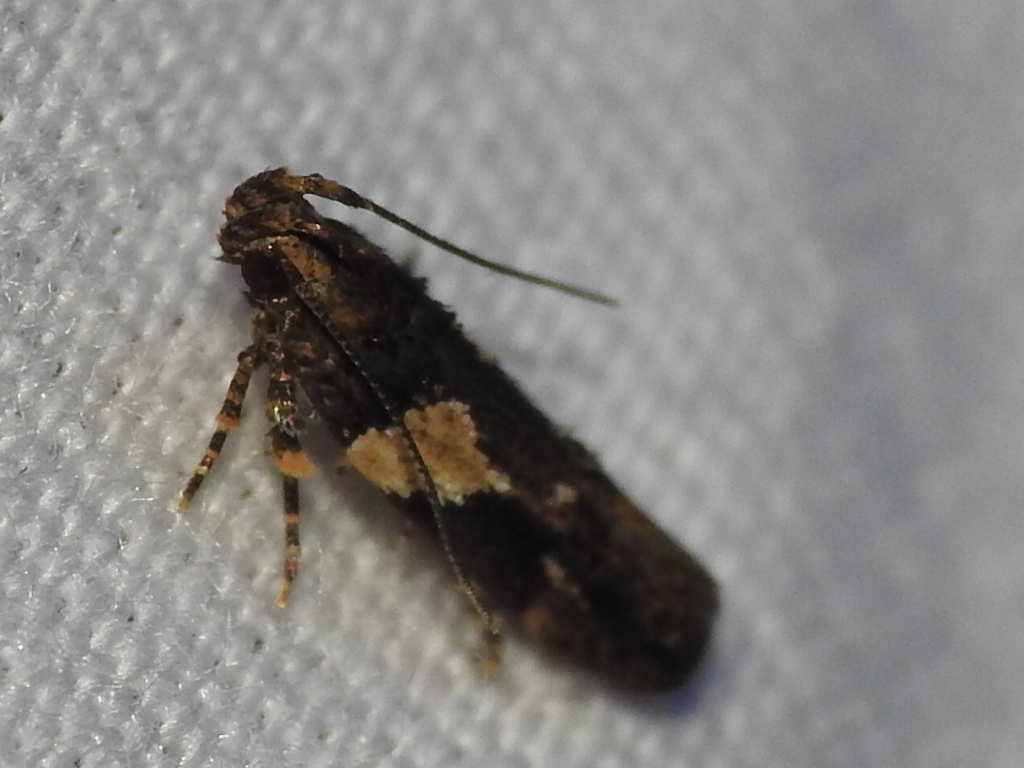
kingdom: Animalia
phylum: Arthropoda
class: Insecta
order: Lepidoptera
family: Gelechiidae
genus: Friseria
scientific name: Friseria acaciella
